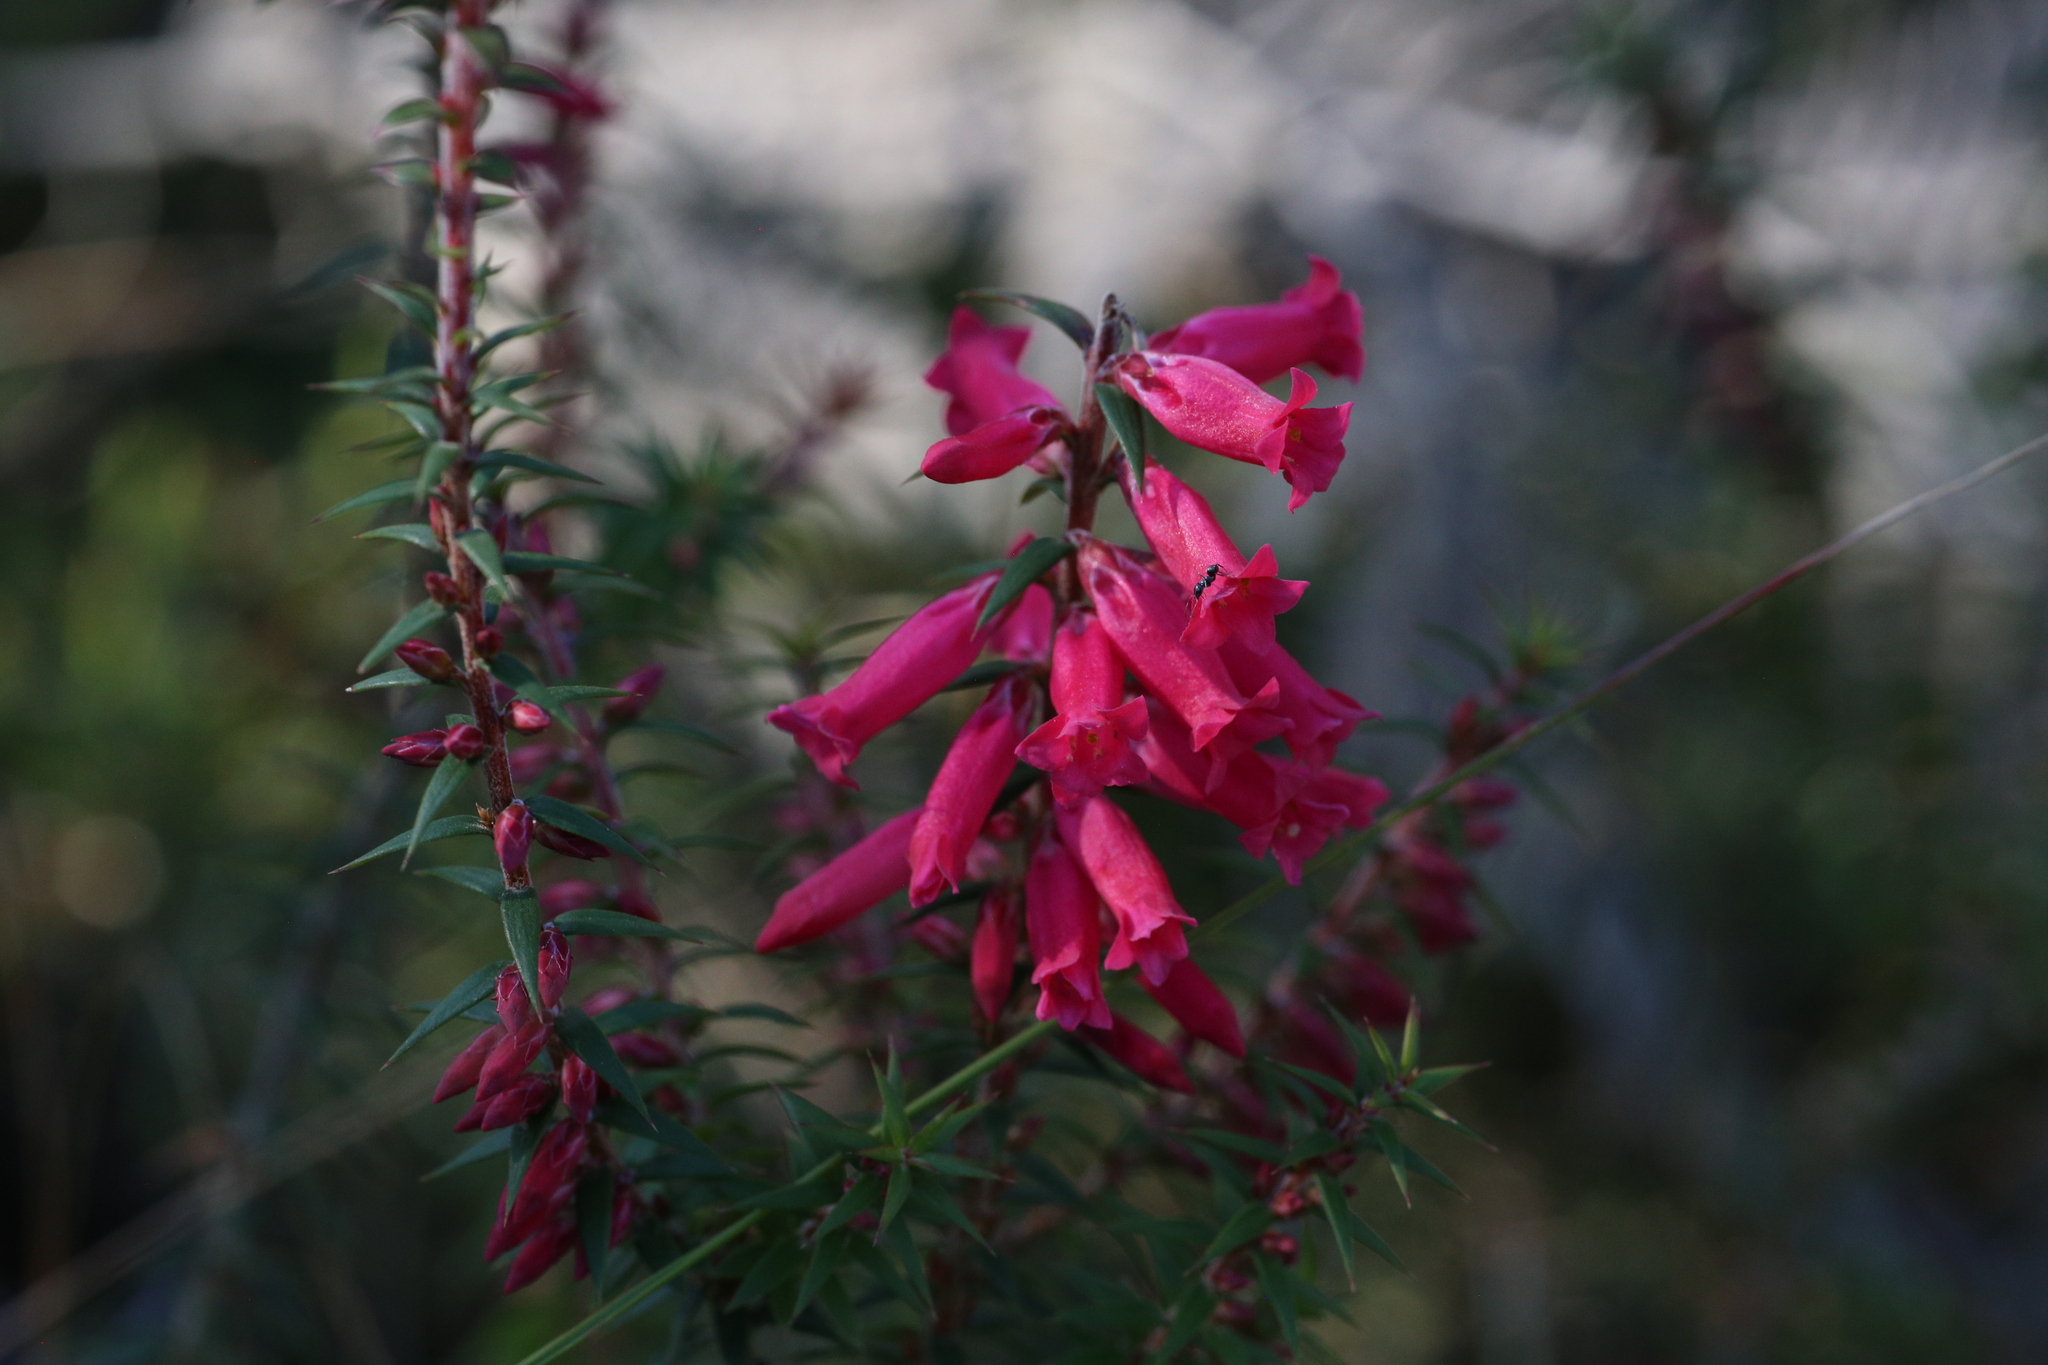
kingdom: Plantae
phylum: Tracheophyta
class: Magnoliopsida
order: Ericales
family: Ericaceae
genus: Epacris
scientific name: Epacris impressa
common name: Common-heath
